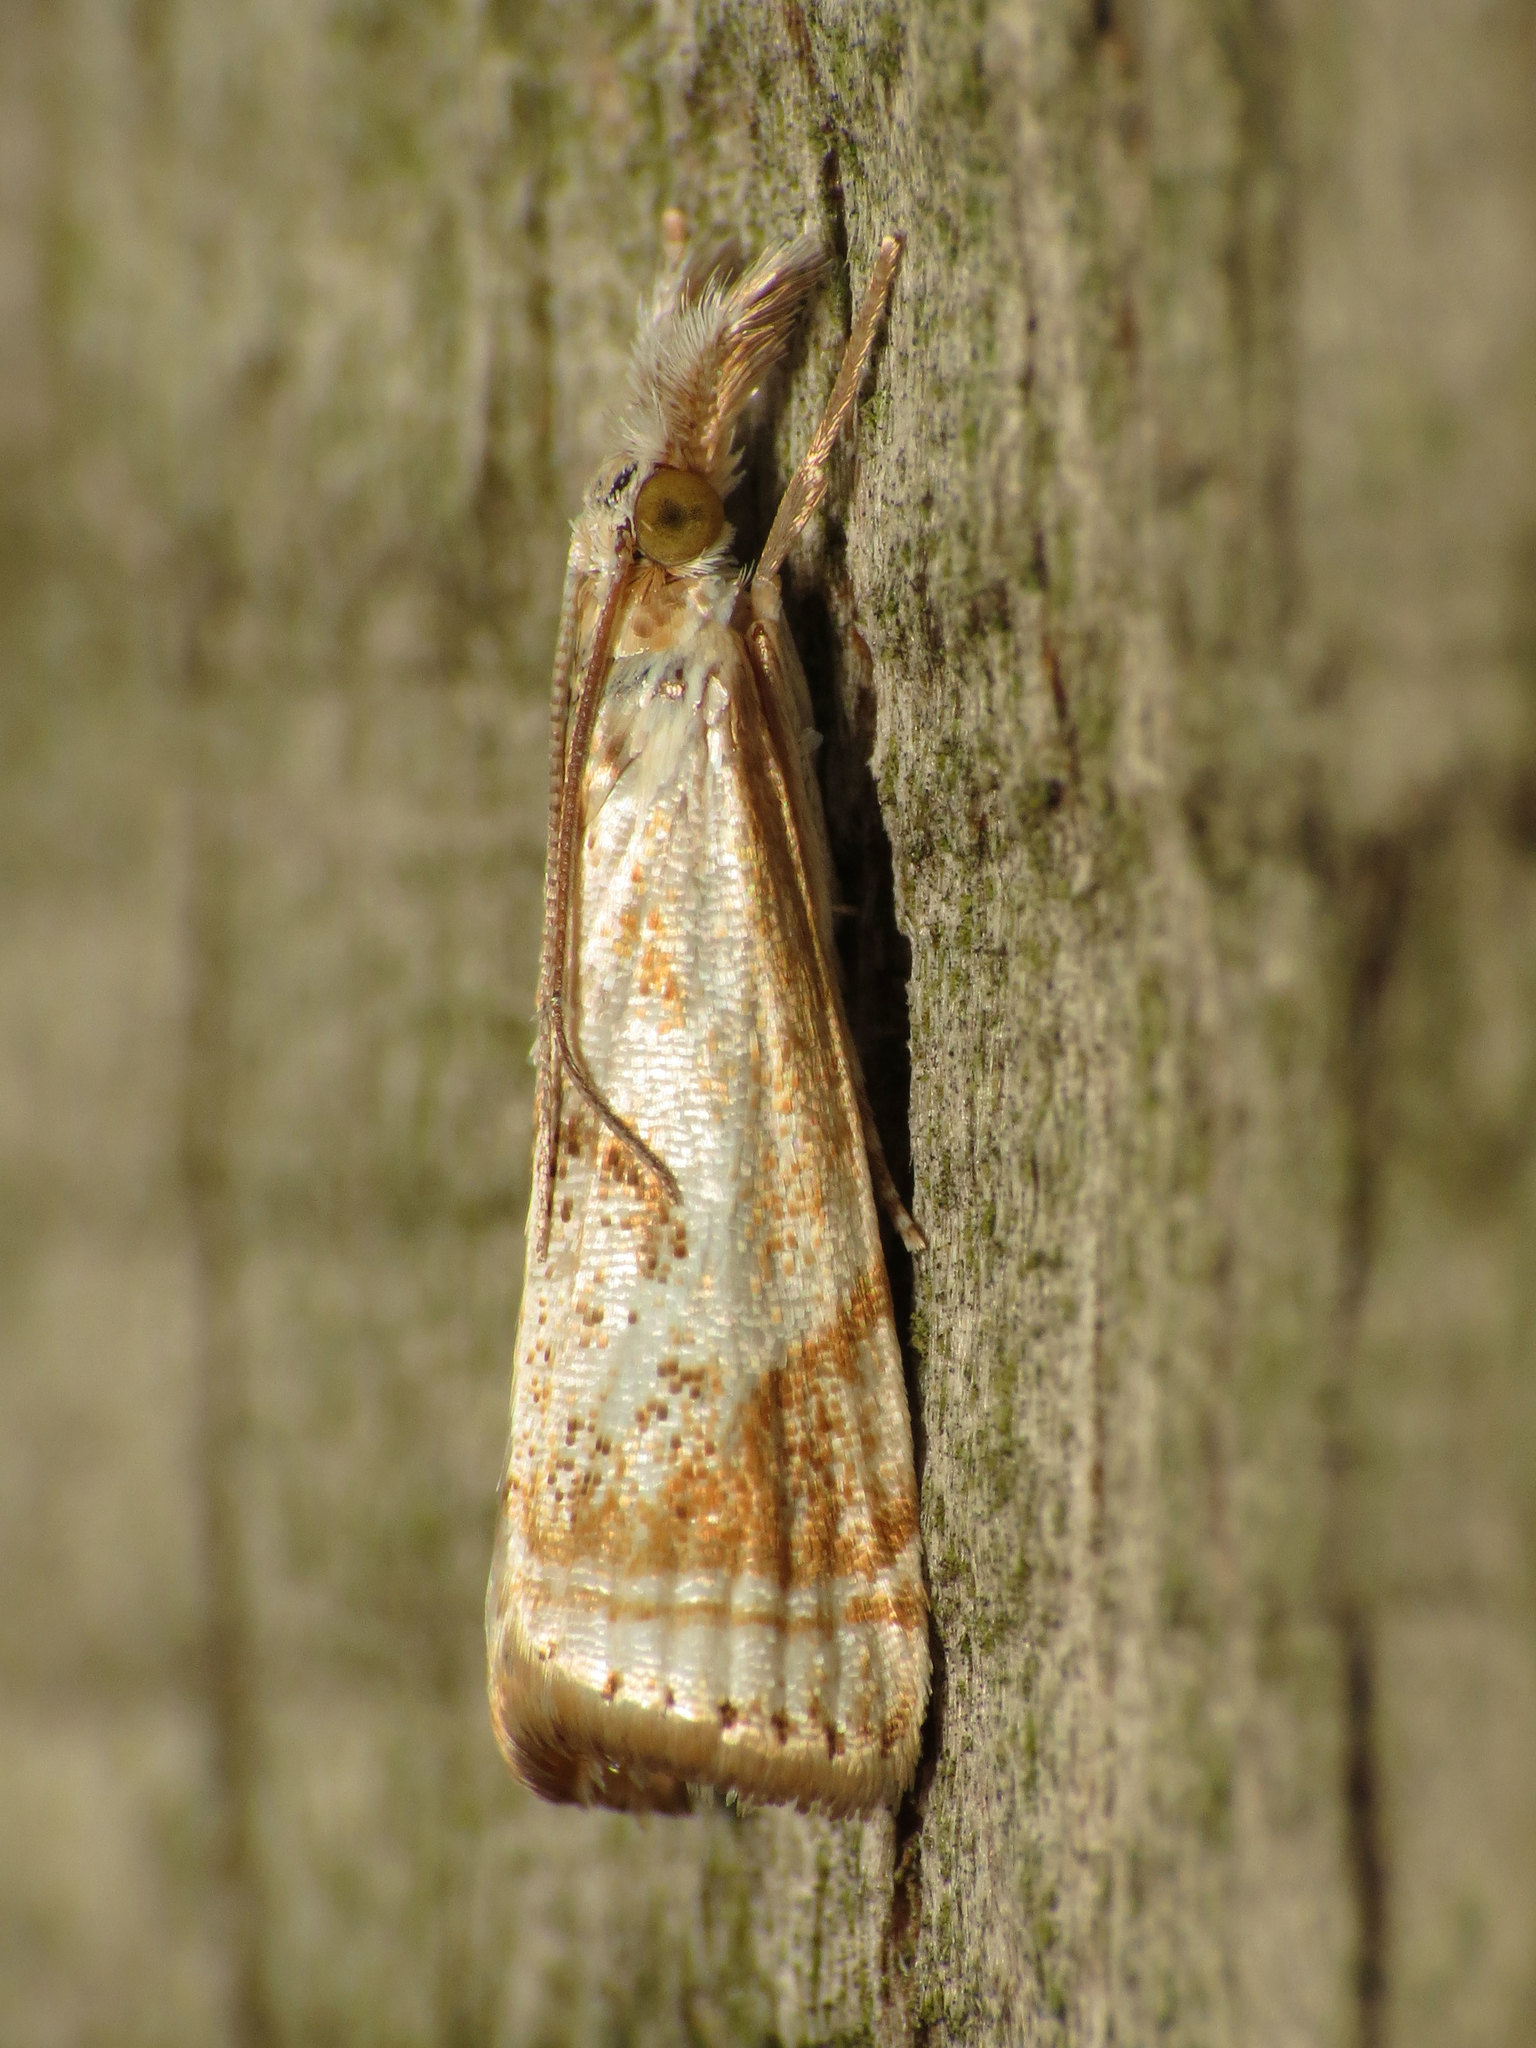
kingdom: Animalia
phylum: Arthropoda
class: Insecta
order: Lepidoptera
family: Crambidae
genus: Microcrambus
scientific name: Microcrambus elegans
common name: Elegant grass-veneer
